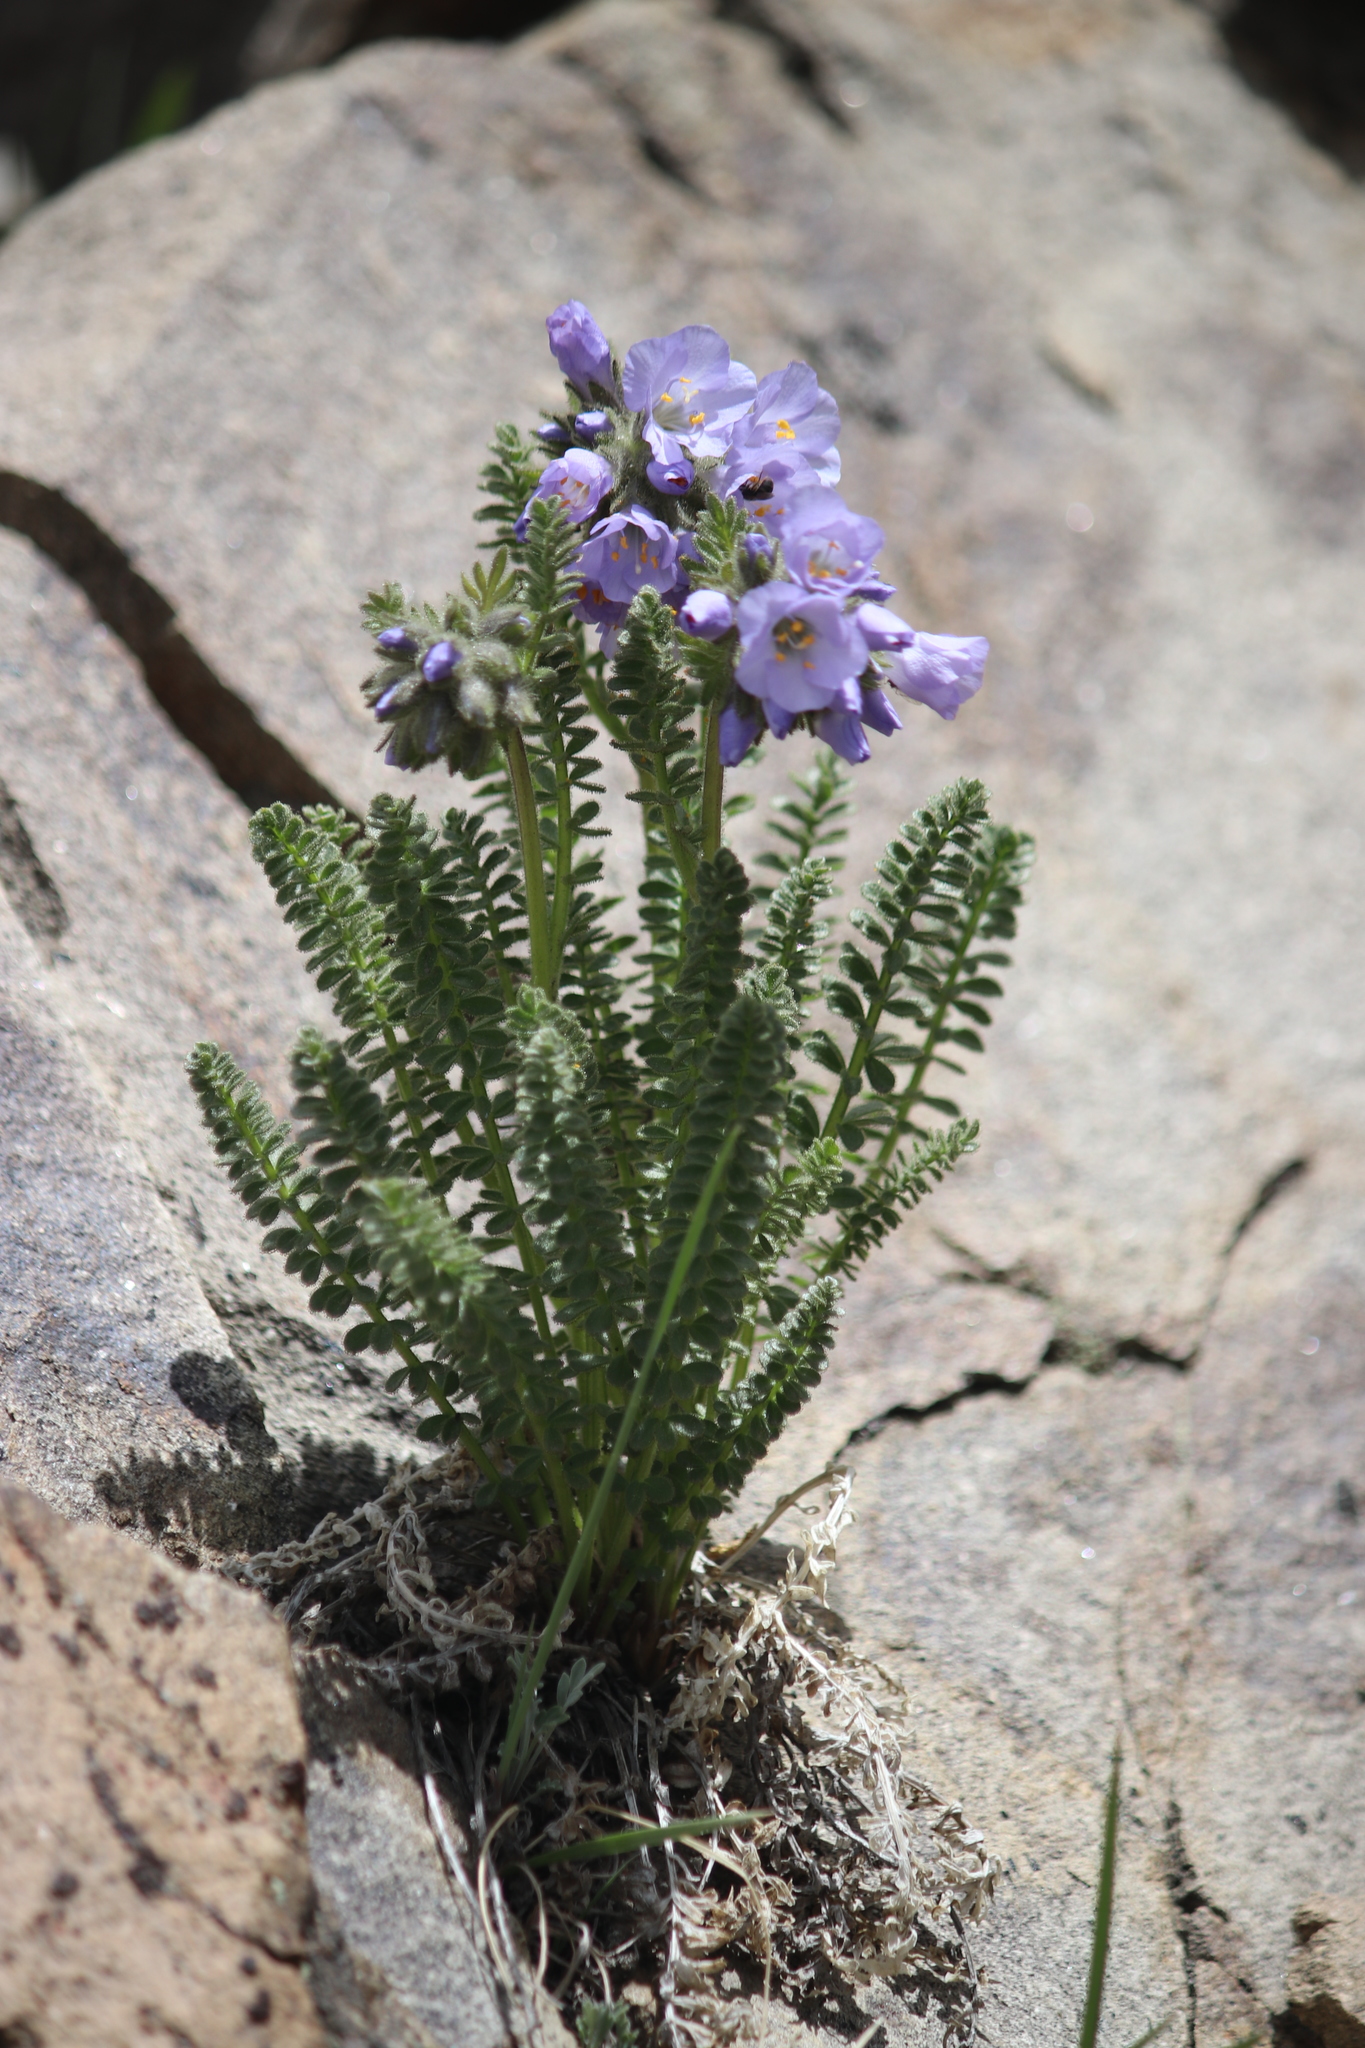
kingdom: Plantae
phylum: Tracheophyta
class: Magnoliopsida
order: Ericales
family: Polemoniaceae
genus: Polemonium
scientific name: Polemonium viscosum
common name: Skunk jacob's-ladder
